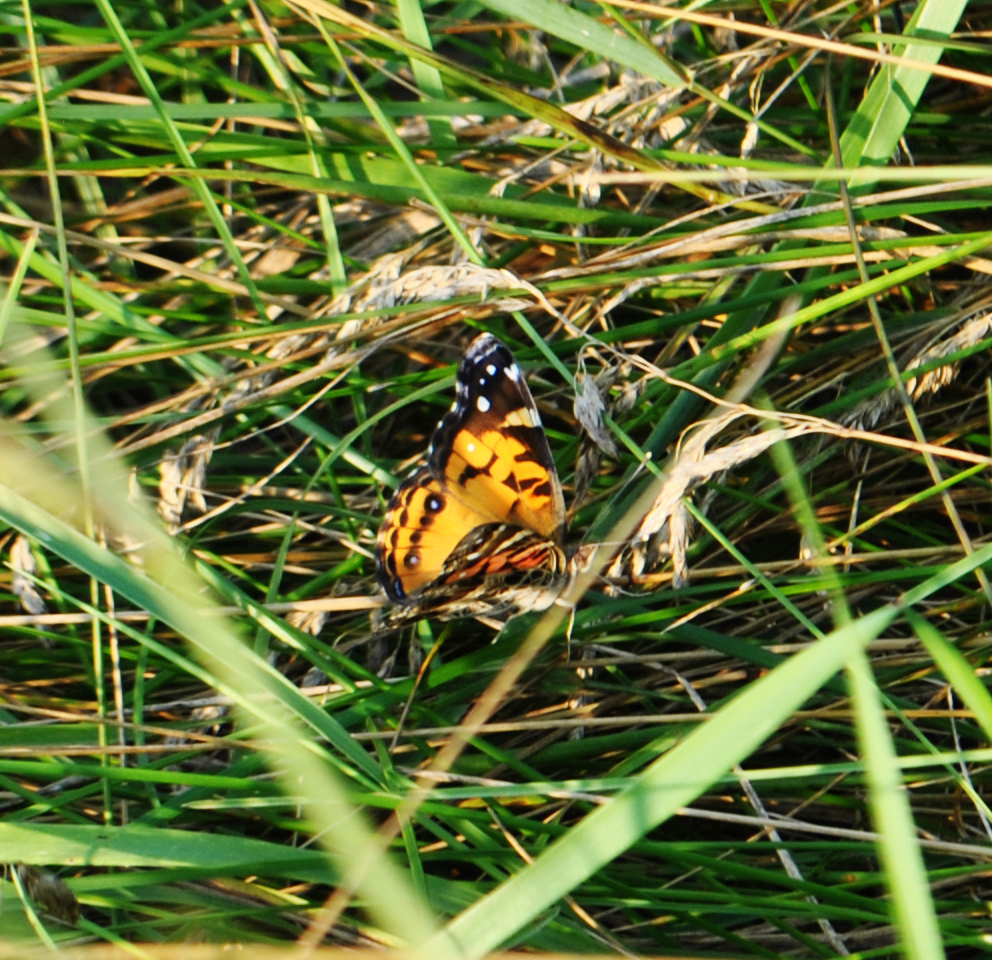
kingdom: Animalia
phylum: Arthropoda
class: Insecta
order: Lepidoptera
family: Nymphalidae
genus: Vanessa
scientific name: Vanessa virginiensis
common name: American lady
